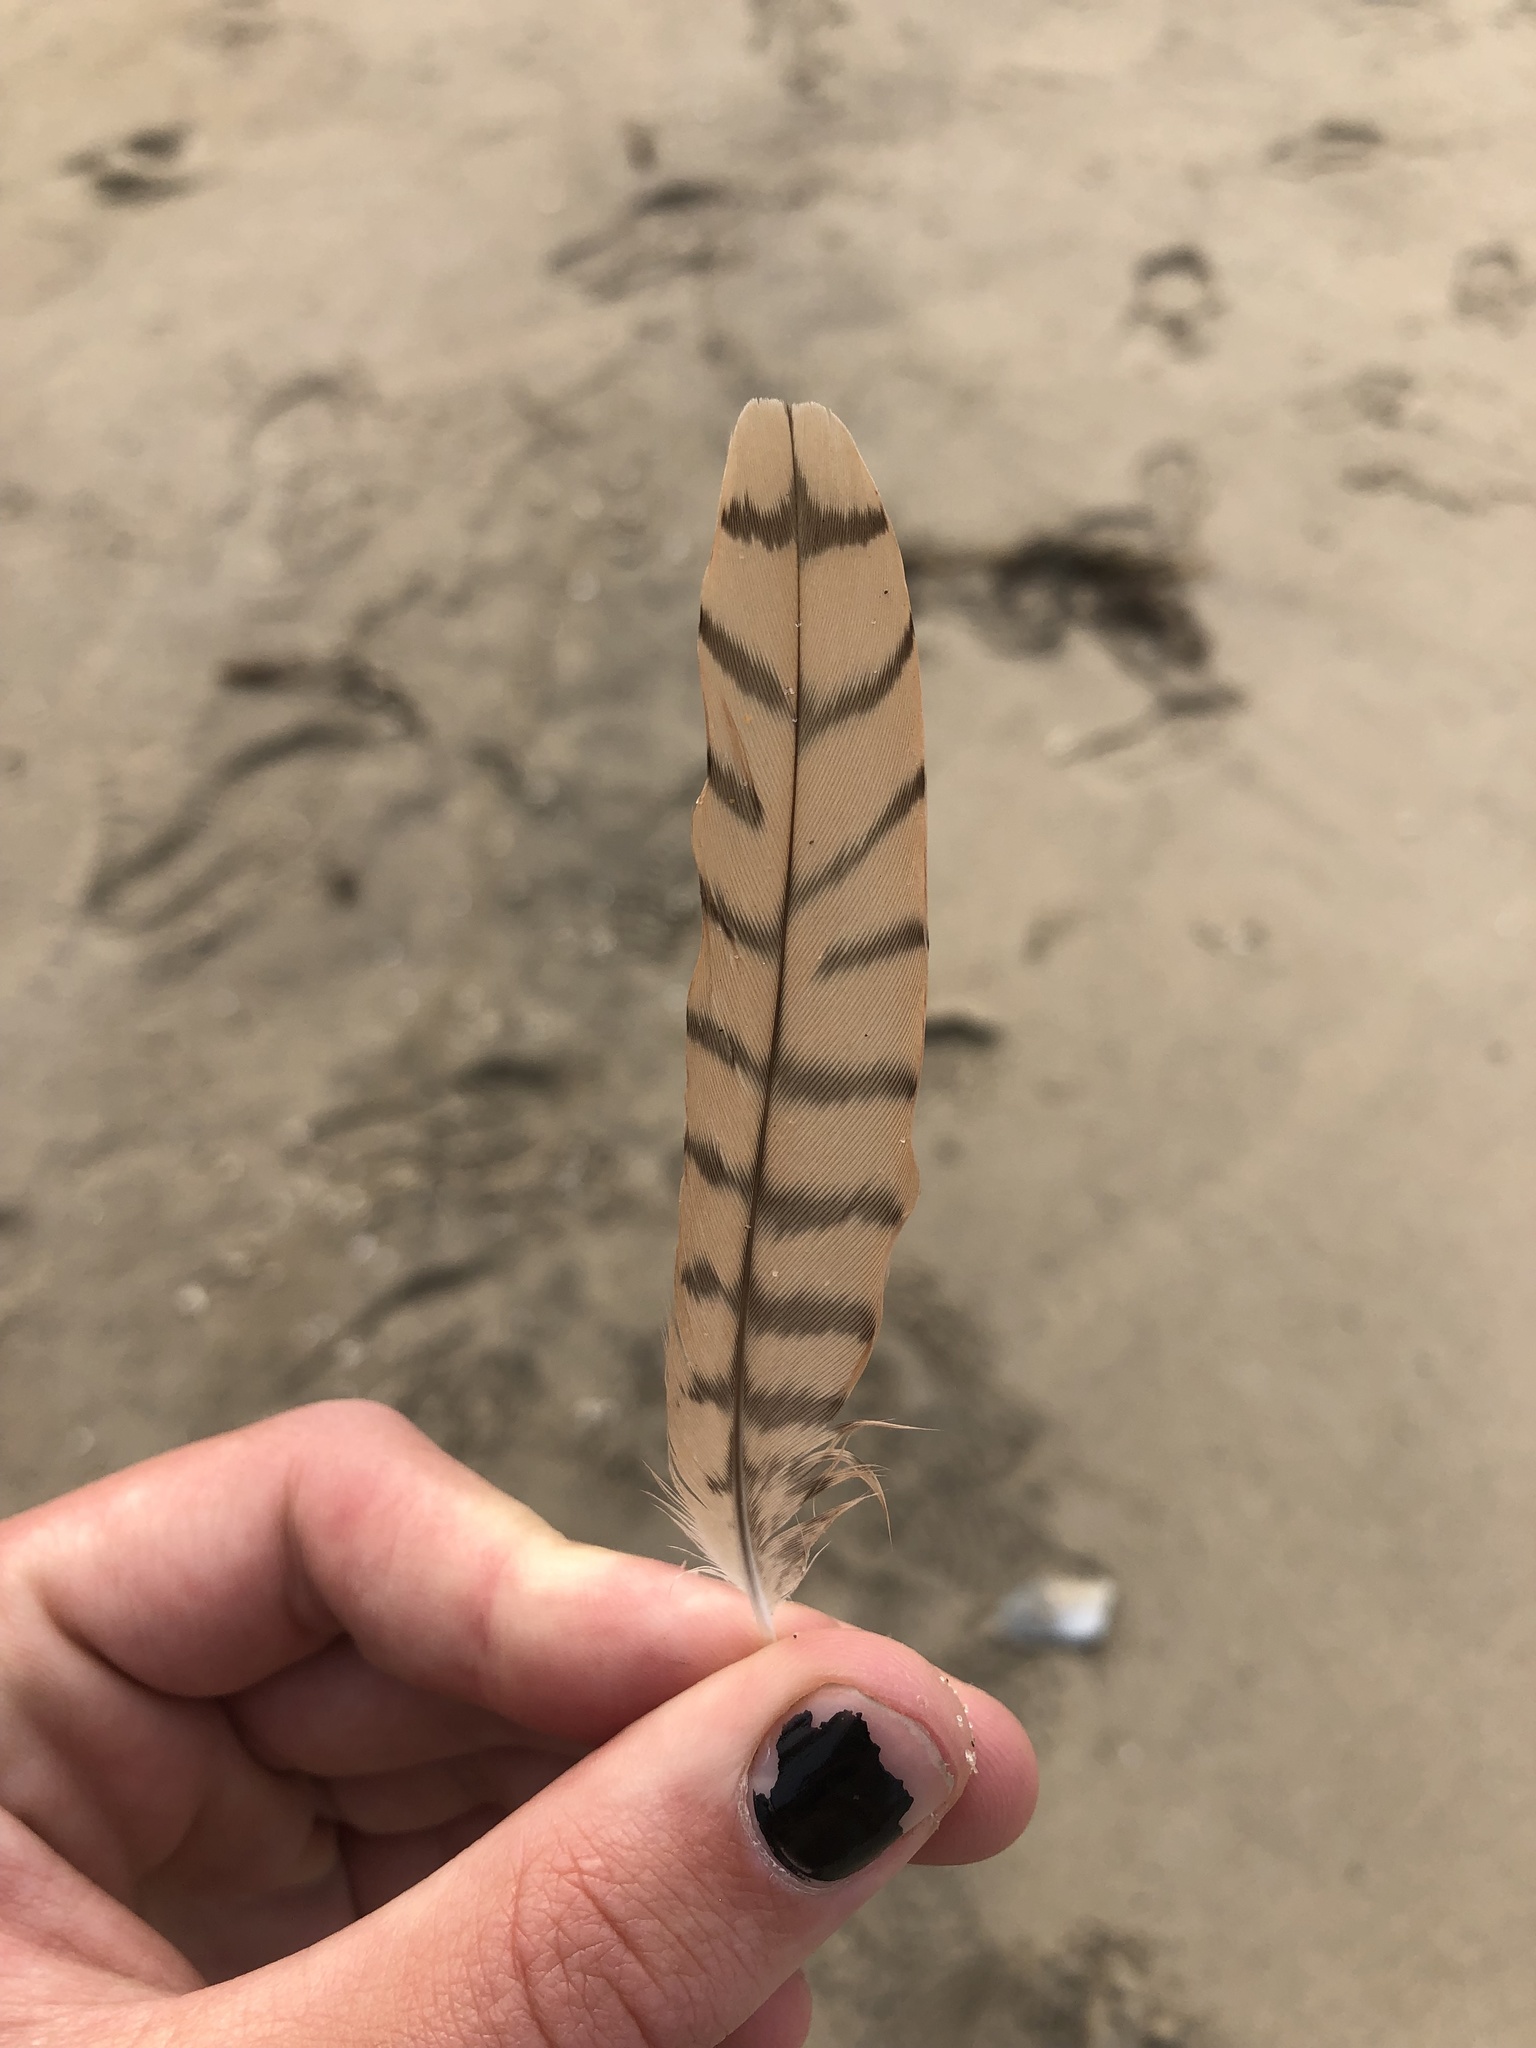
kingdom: Animalia
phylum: Chordata
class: Aves
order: Charadriiformes
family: Scolopacidae
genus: Numenius
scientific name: Numenius americanus
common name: Long-billed curlew
